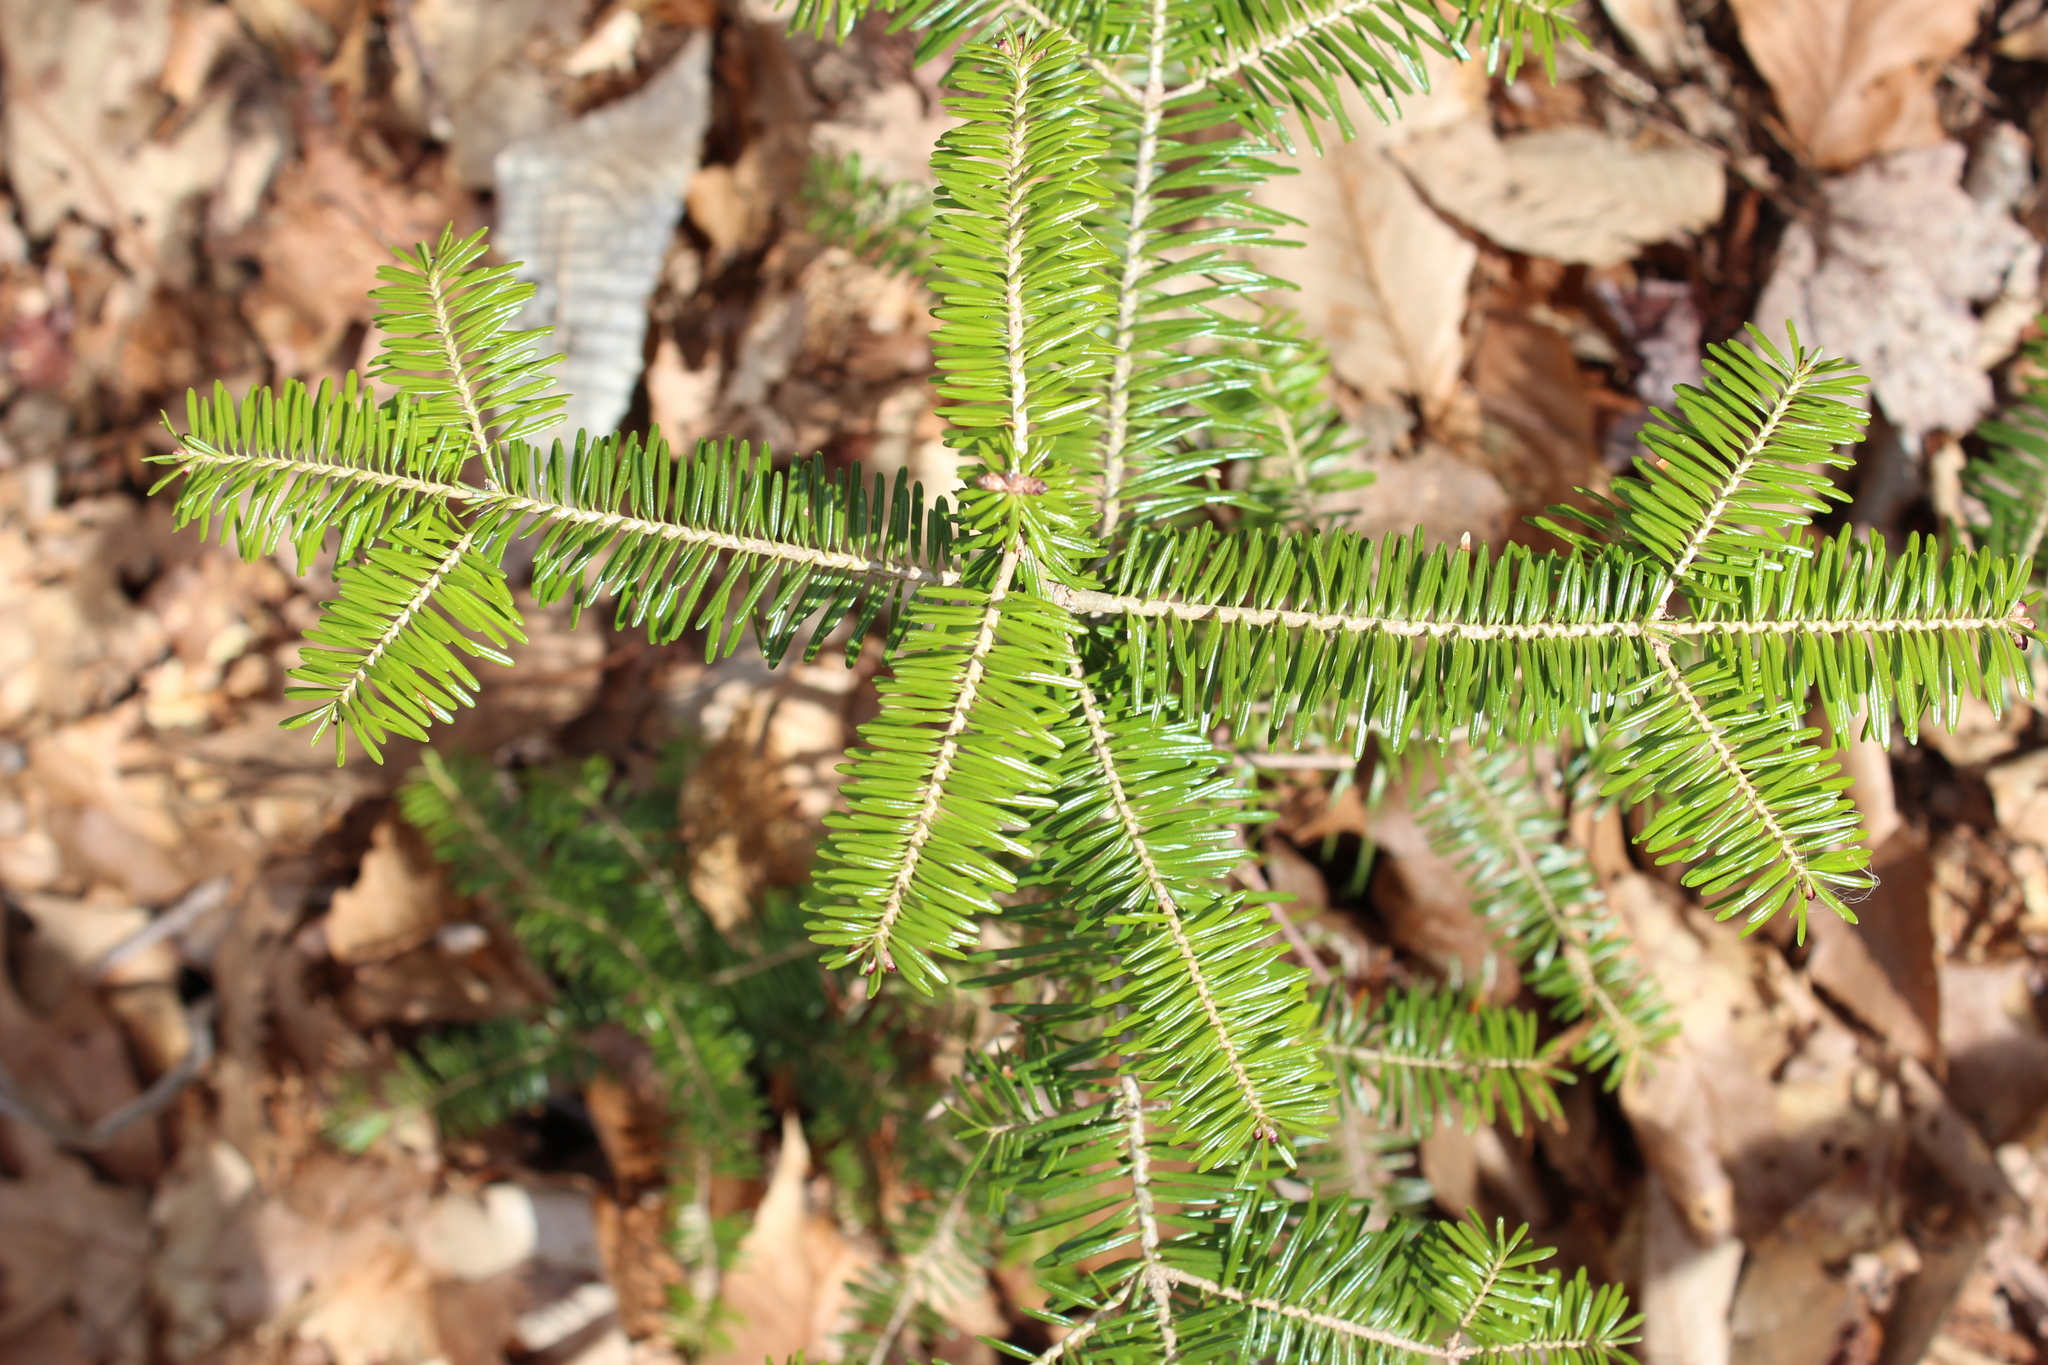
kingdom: Plantae
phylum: Tracheophyta
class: Pinopsida
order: Pinales
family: Pinaceae
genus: Abies
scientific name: Abies balsamea
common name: Balsam fir
